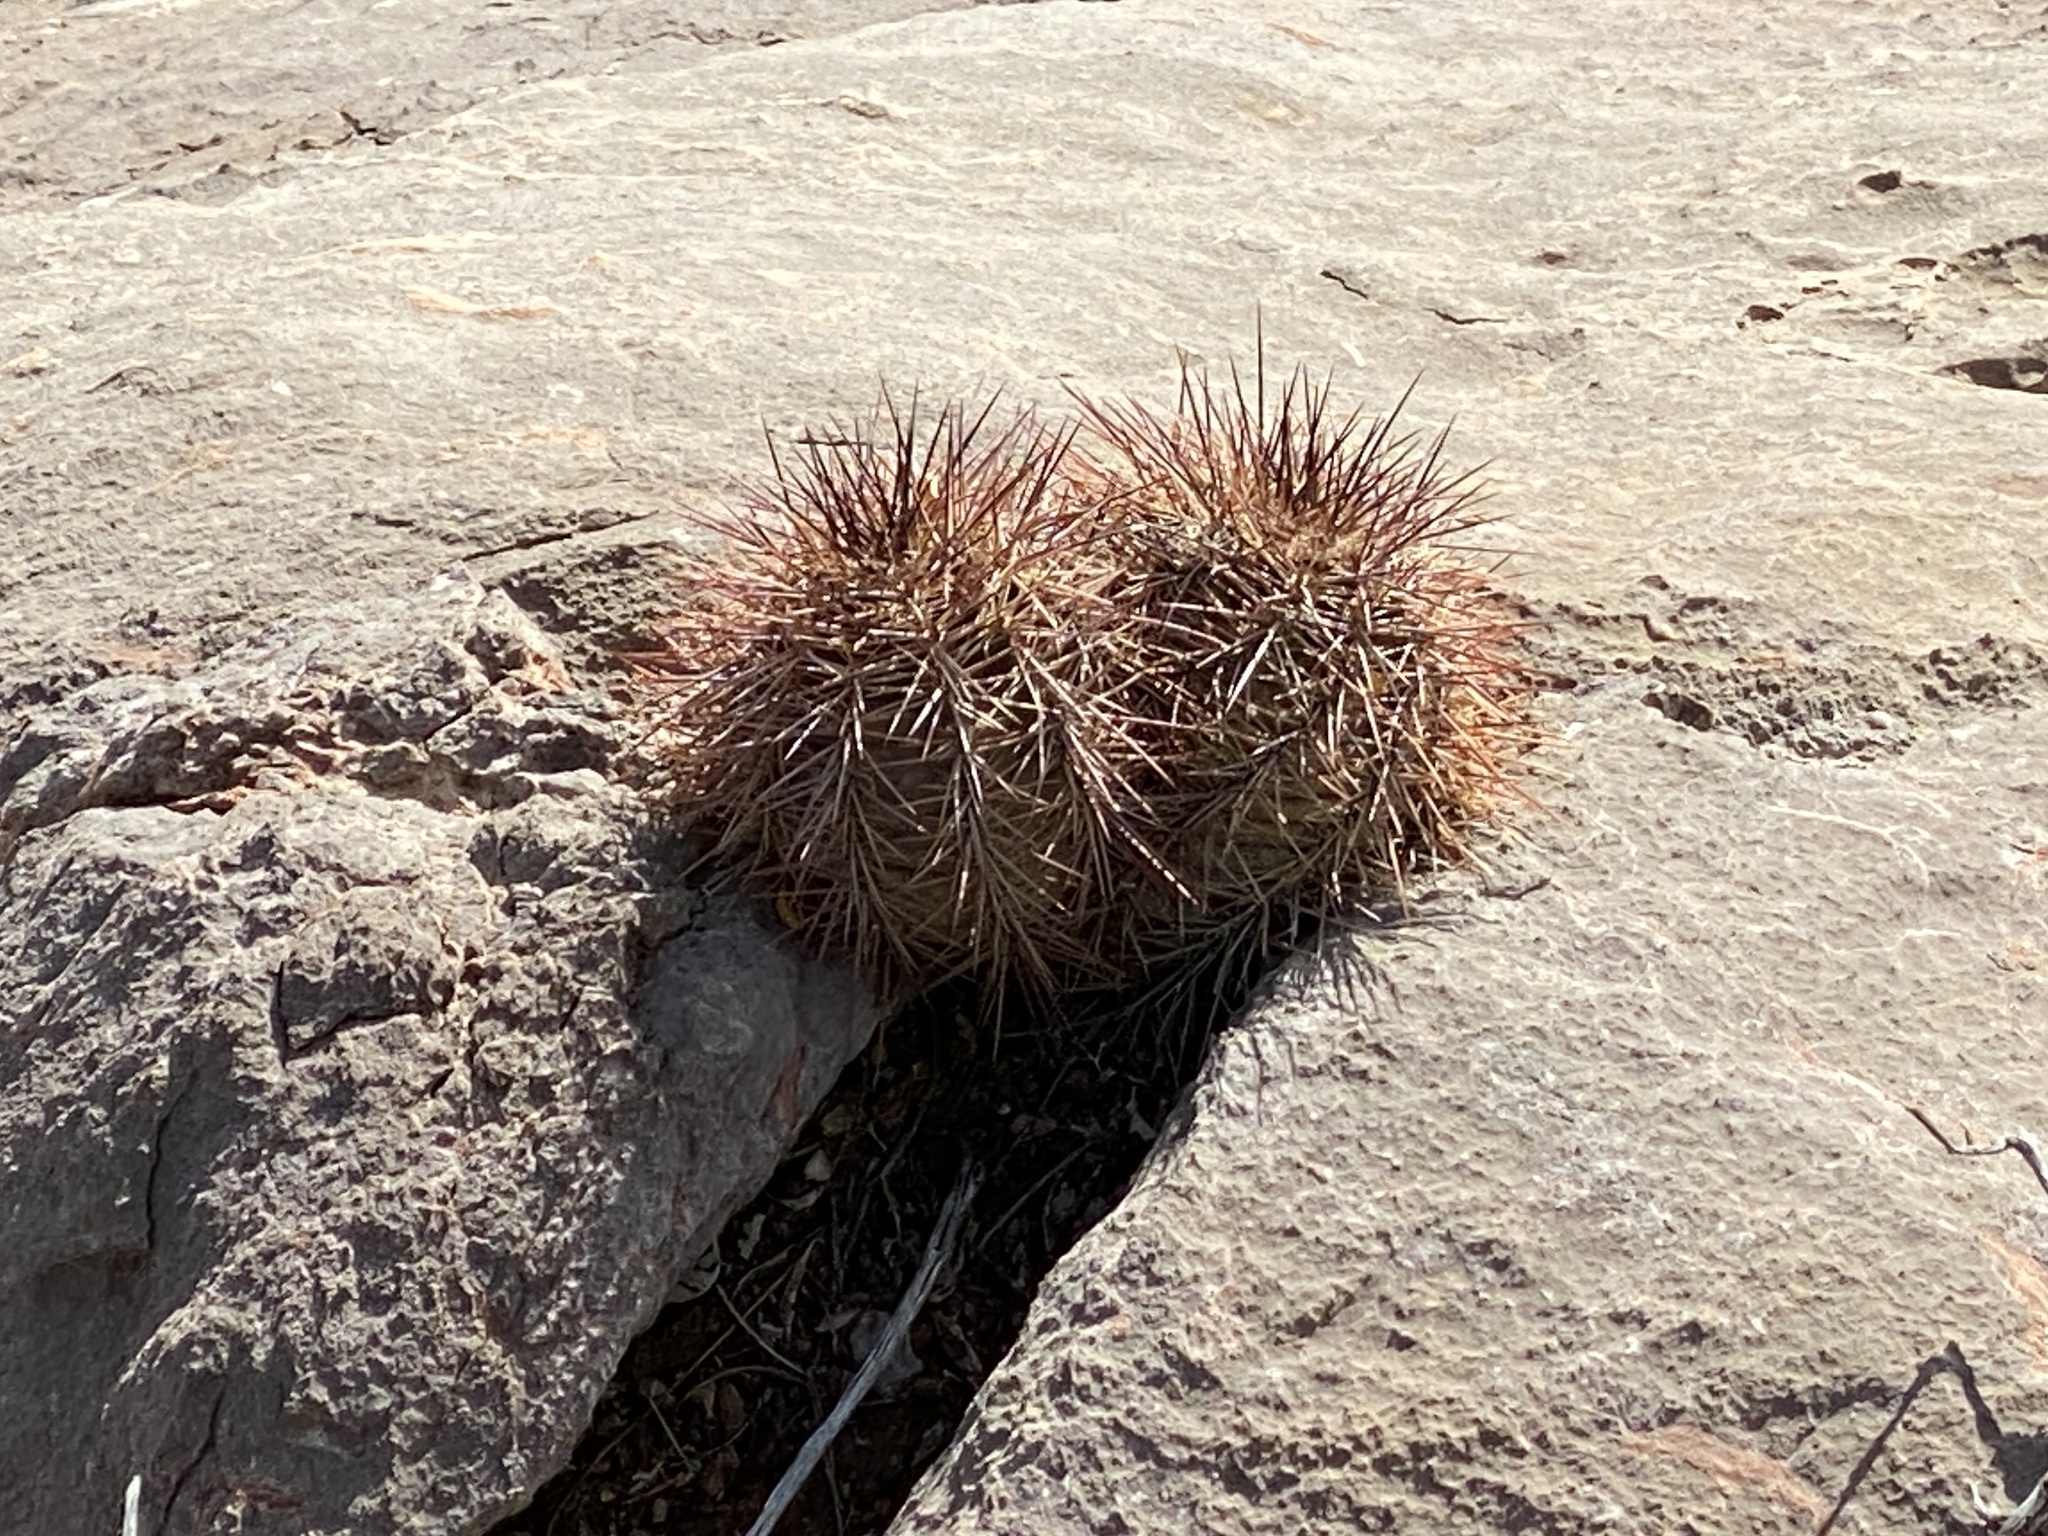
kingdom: Plantae
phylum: Tracheophyta
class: Magnoliopsida
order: Caryophyllales
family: Cactaceae
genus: Echinocereus
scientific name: Echinocereus coccineus
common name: Scarlet hedgehog cactus
